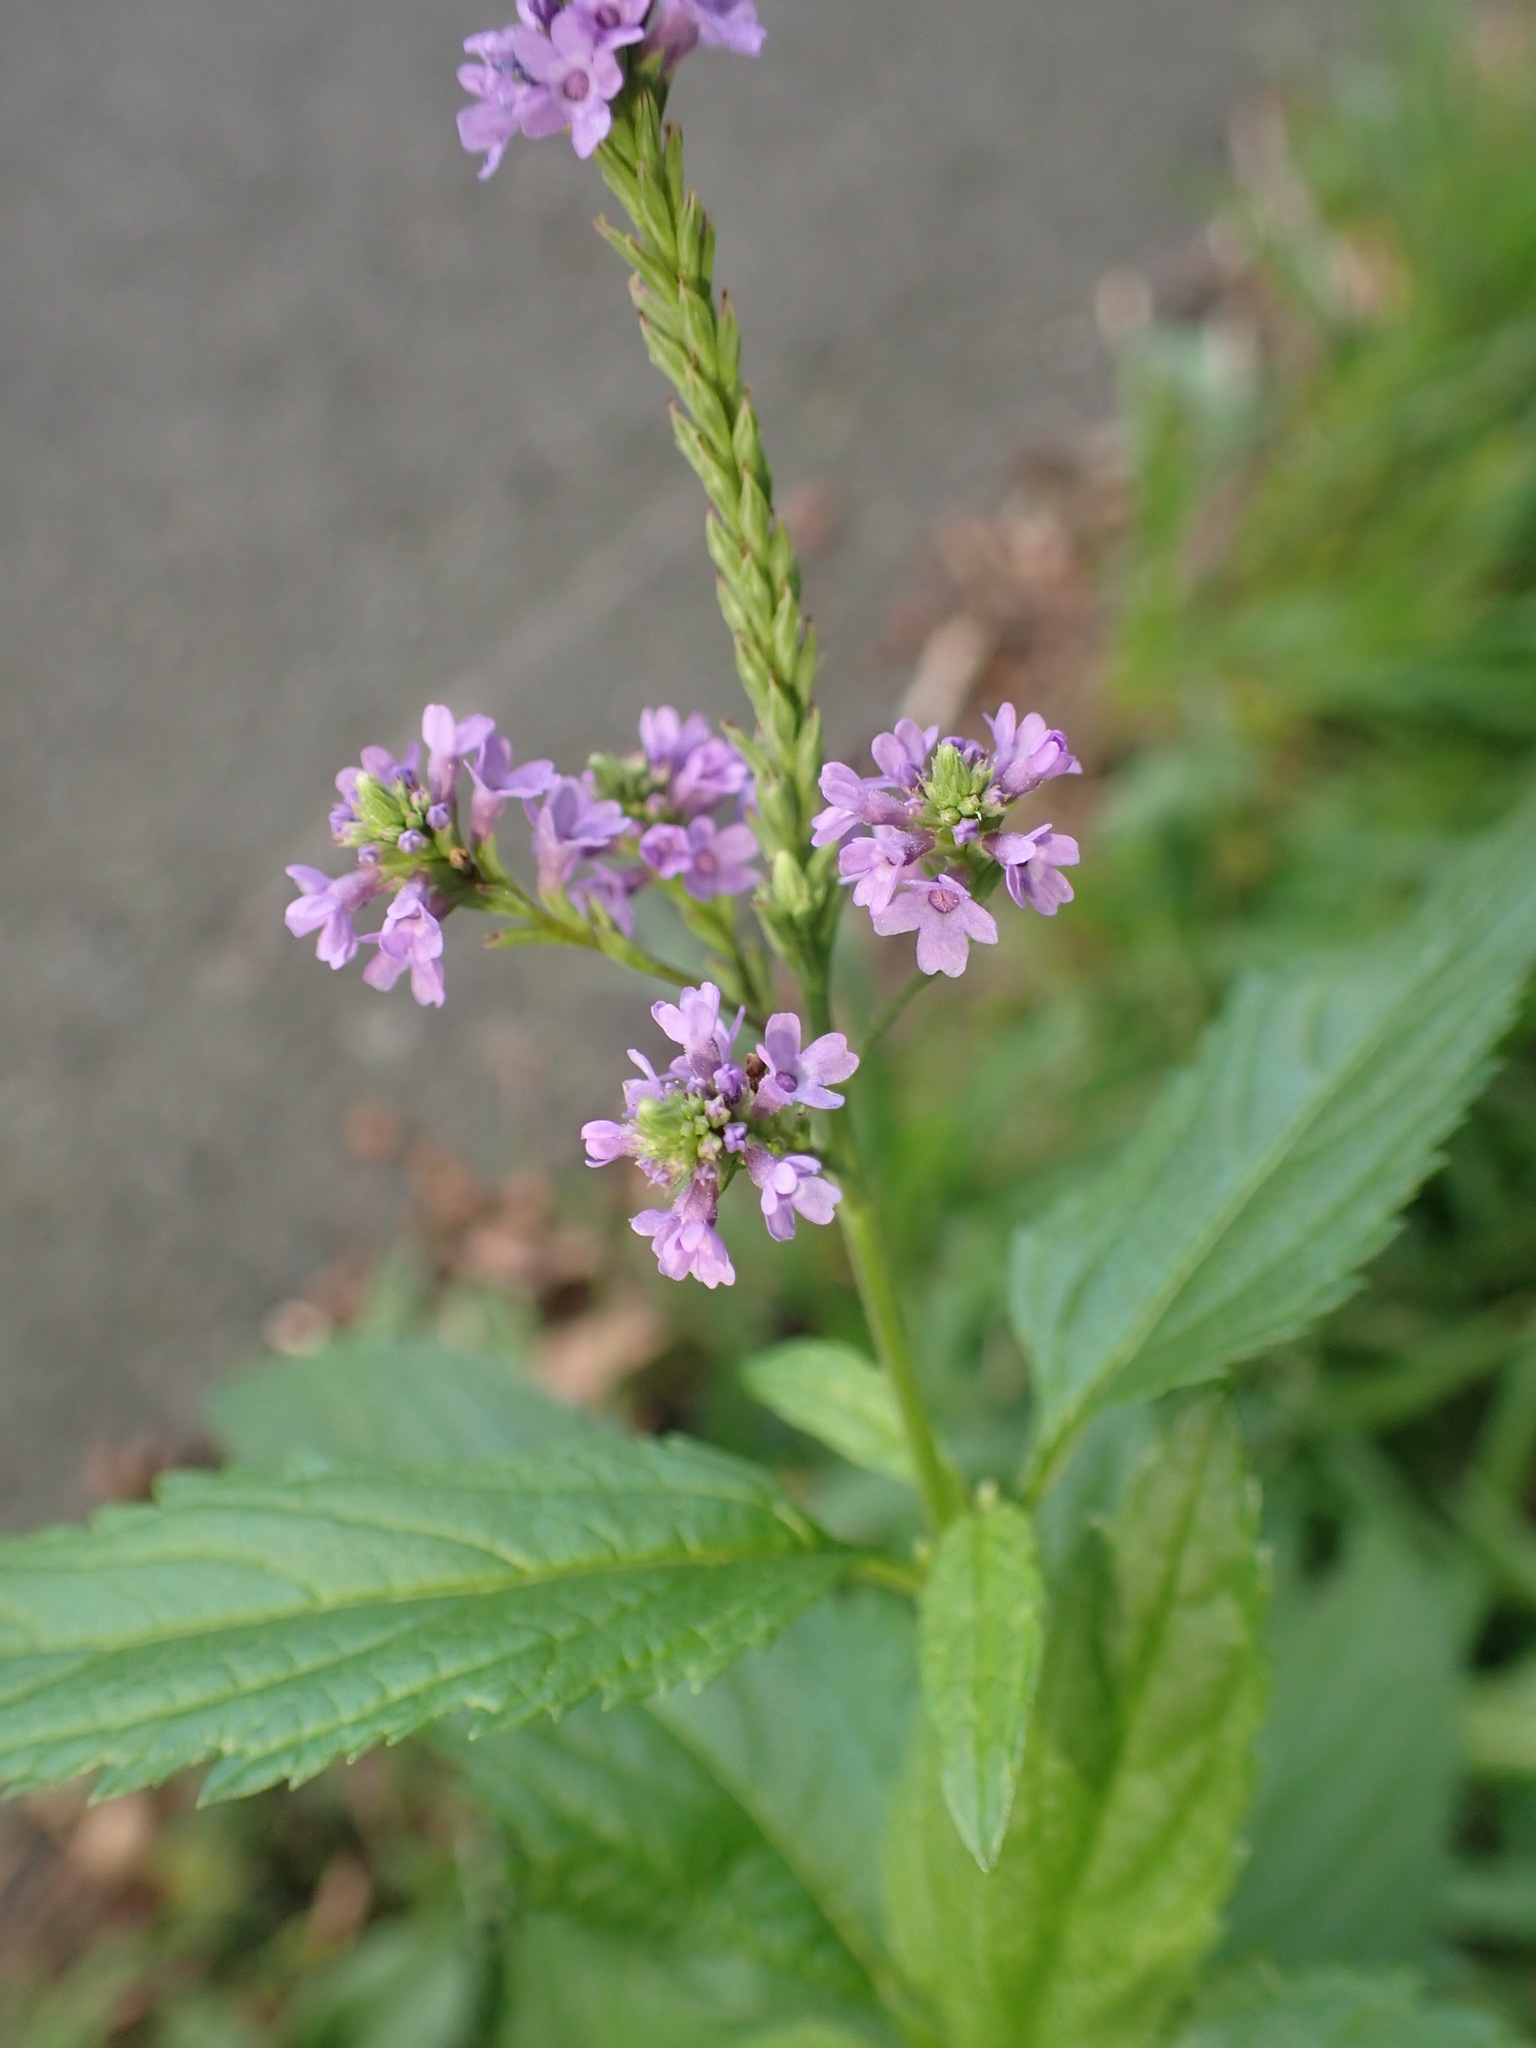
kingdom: Plantae
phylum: Tracheophyta
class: Magnoliopsida
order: Lamiales
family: Verbenaceae
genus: Verbena
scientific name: Verbena hastata
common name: American blue vervain
